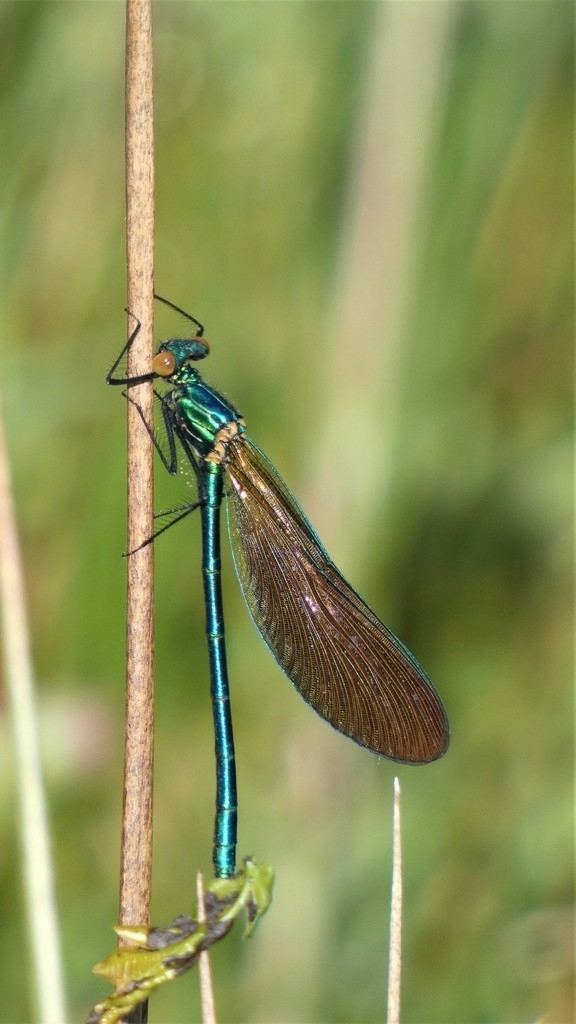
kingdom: Animalia
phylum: Arthropoda
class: Insecta
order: Odonata
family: Calopterygidae
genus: Calopteryx
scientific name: Calopteryx virgo
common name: Beautiful demoiselle
